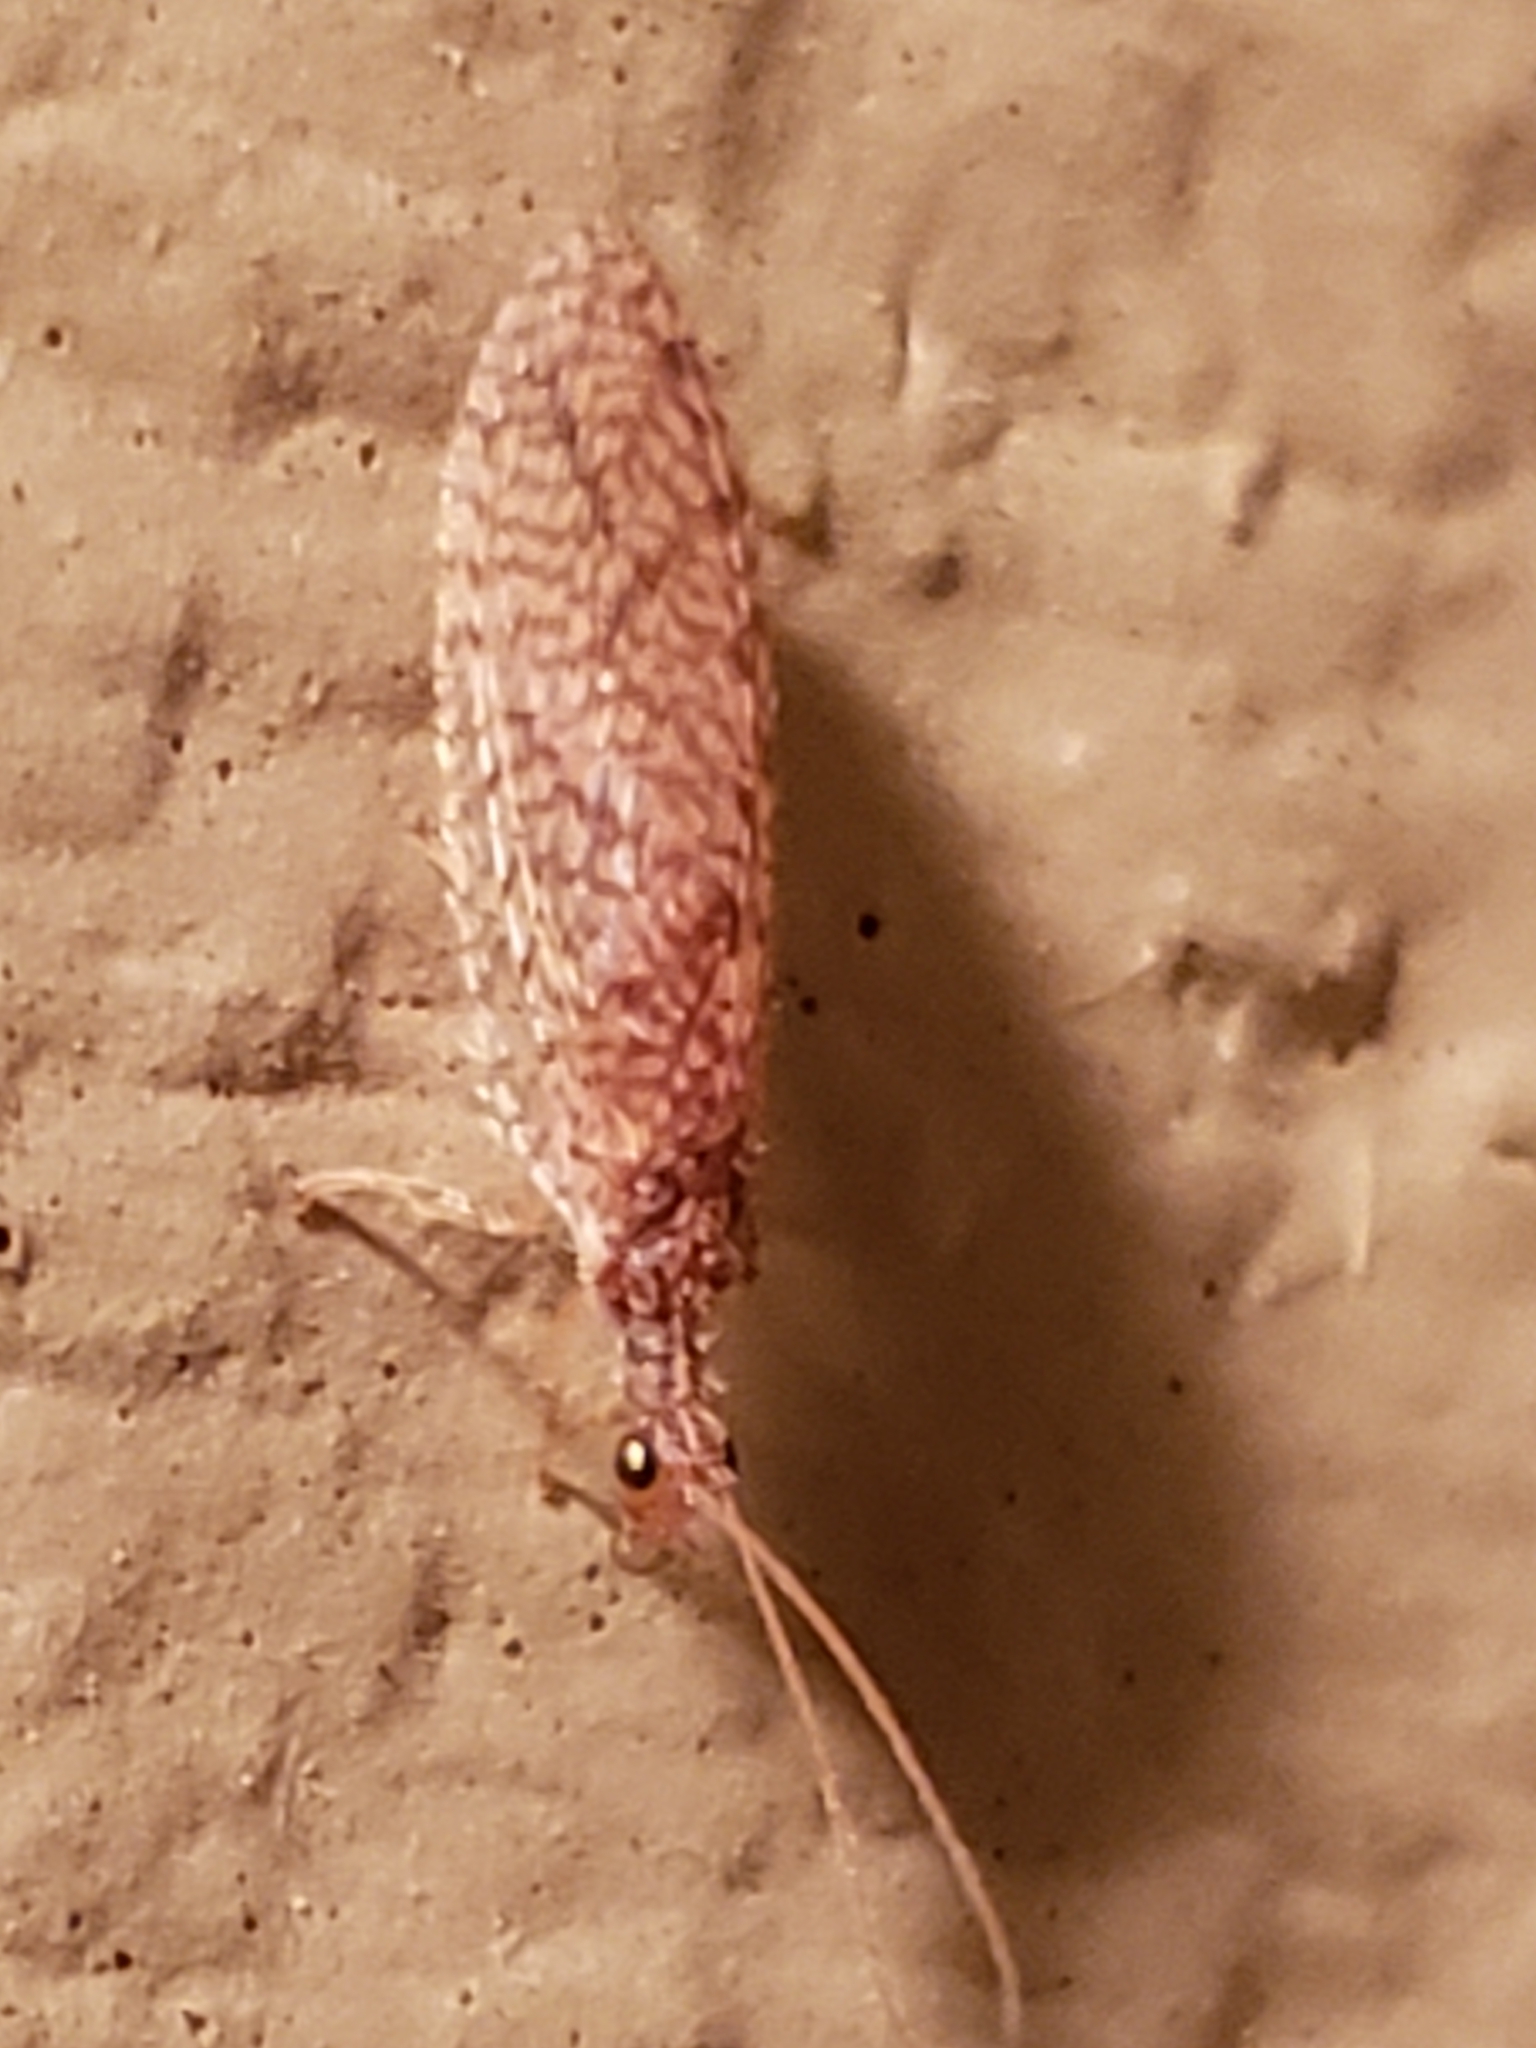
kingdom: Animalia
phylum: Arthropoda
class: Insecta
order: Neuroptera
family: Hemerobiidae
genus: Micromus
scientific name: Micromus posticus
